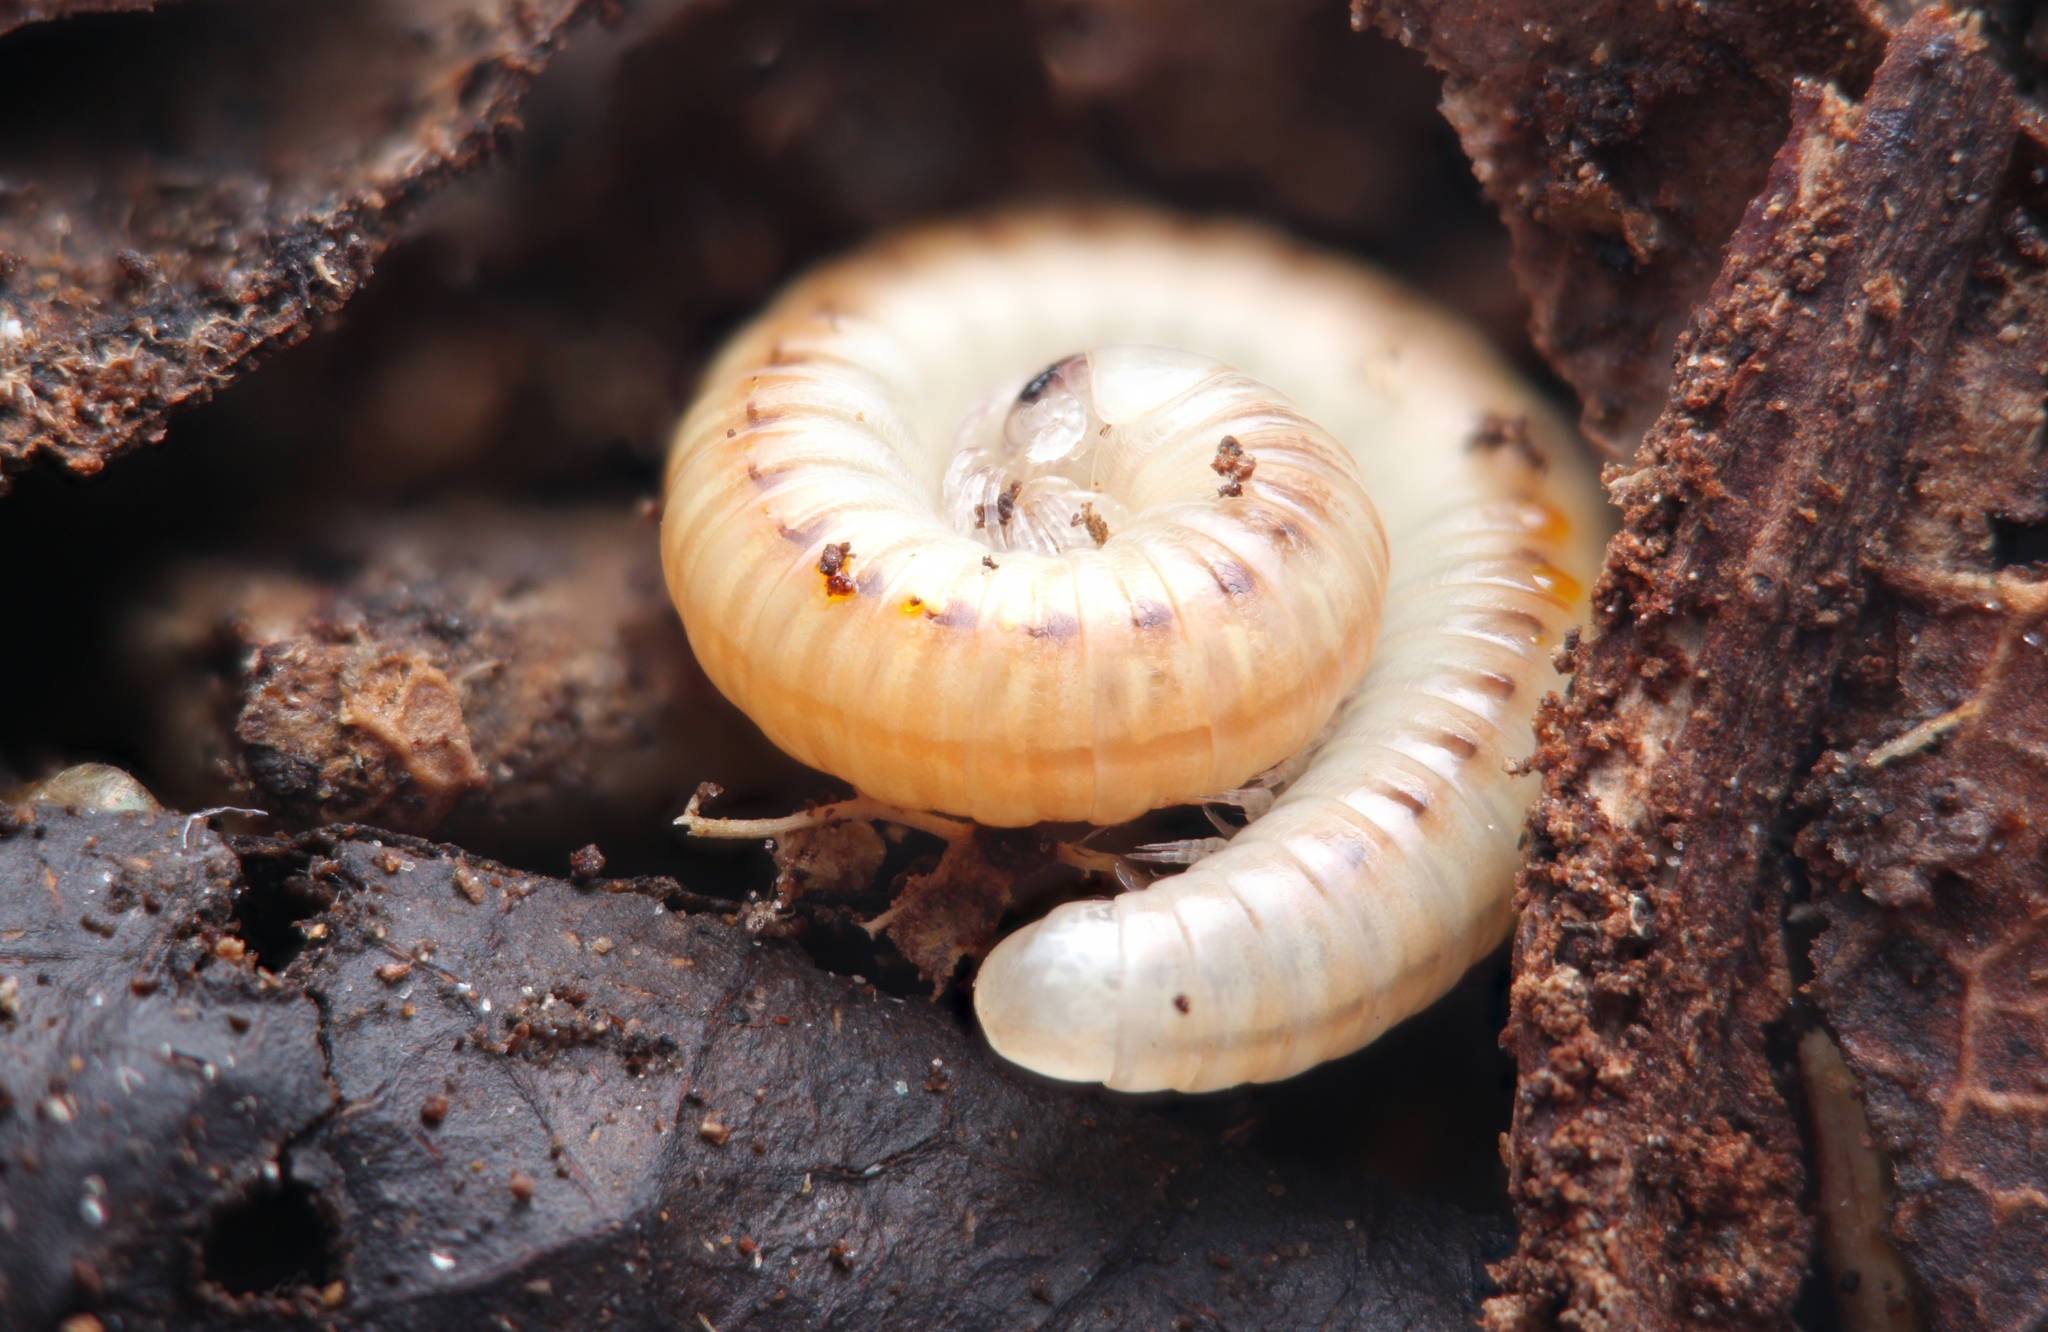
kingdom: Animalia
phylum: Arthropoda
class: Diplopoda
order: Spirobolida
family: Spirobolellidae
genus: Paraspirobolus
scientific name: Paraspirobolus lucifugus
